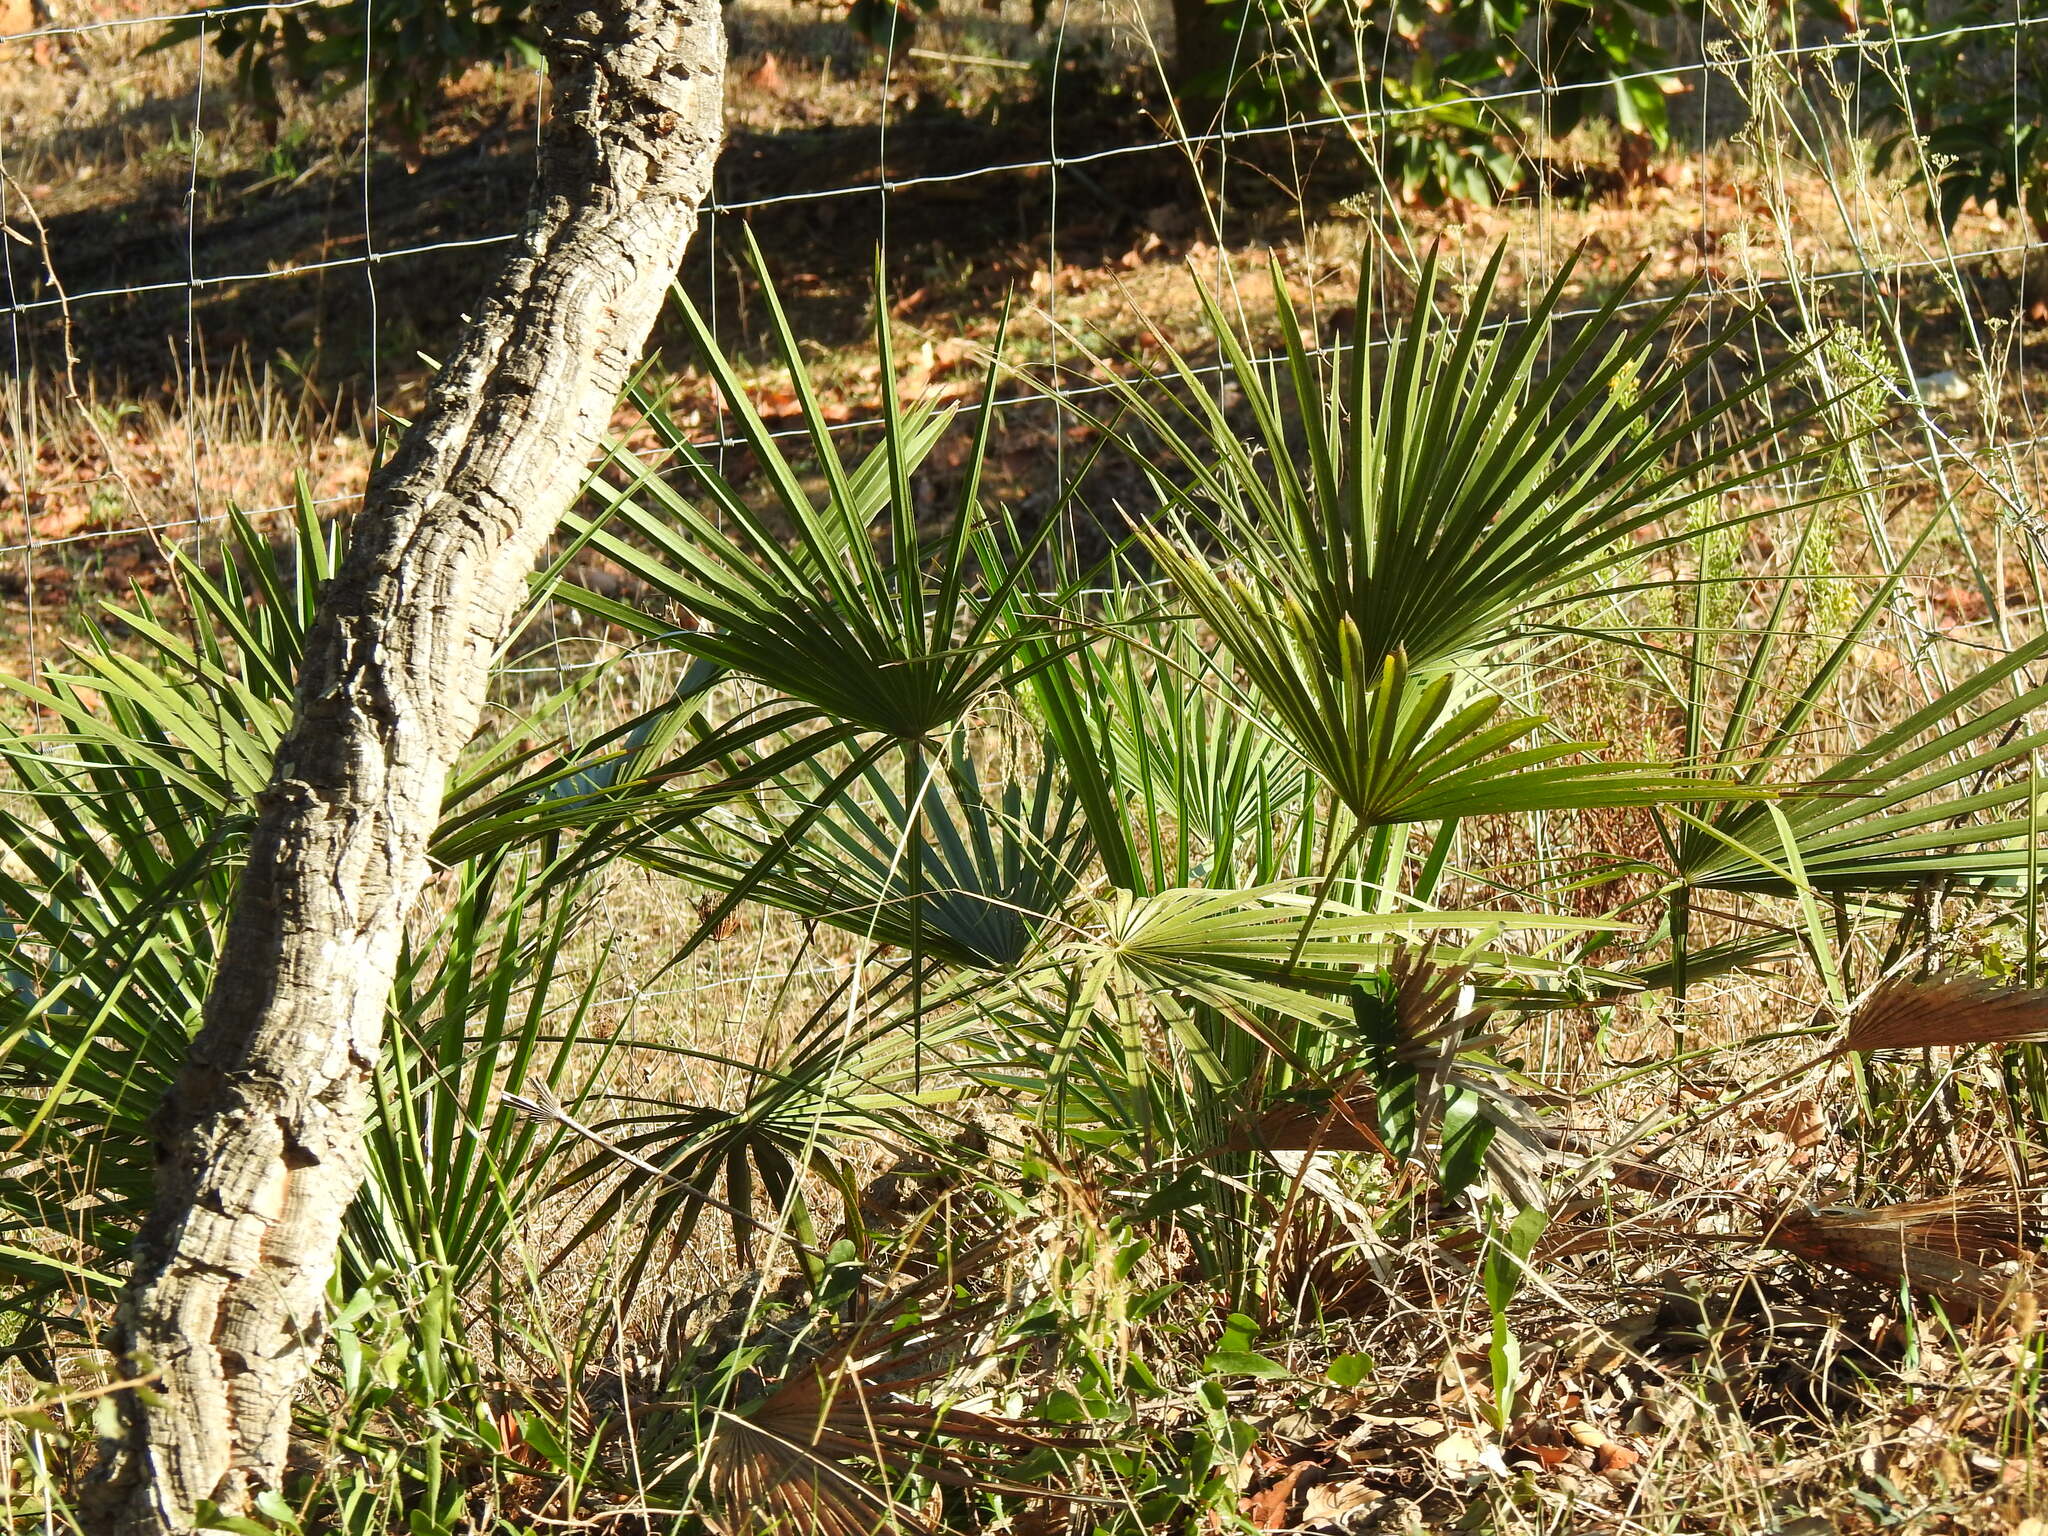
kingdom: Plantae
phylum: Tracheophyta
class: Liliopsida
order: Arecales
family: Arecaceae
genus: Chamaerops
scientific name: Chamaerops humilis
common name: Dwarf fan palm
